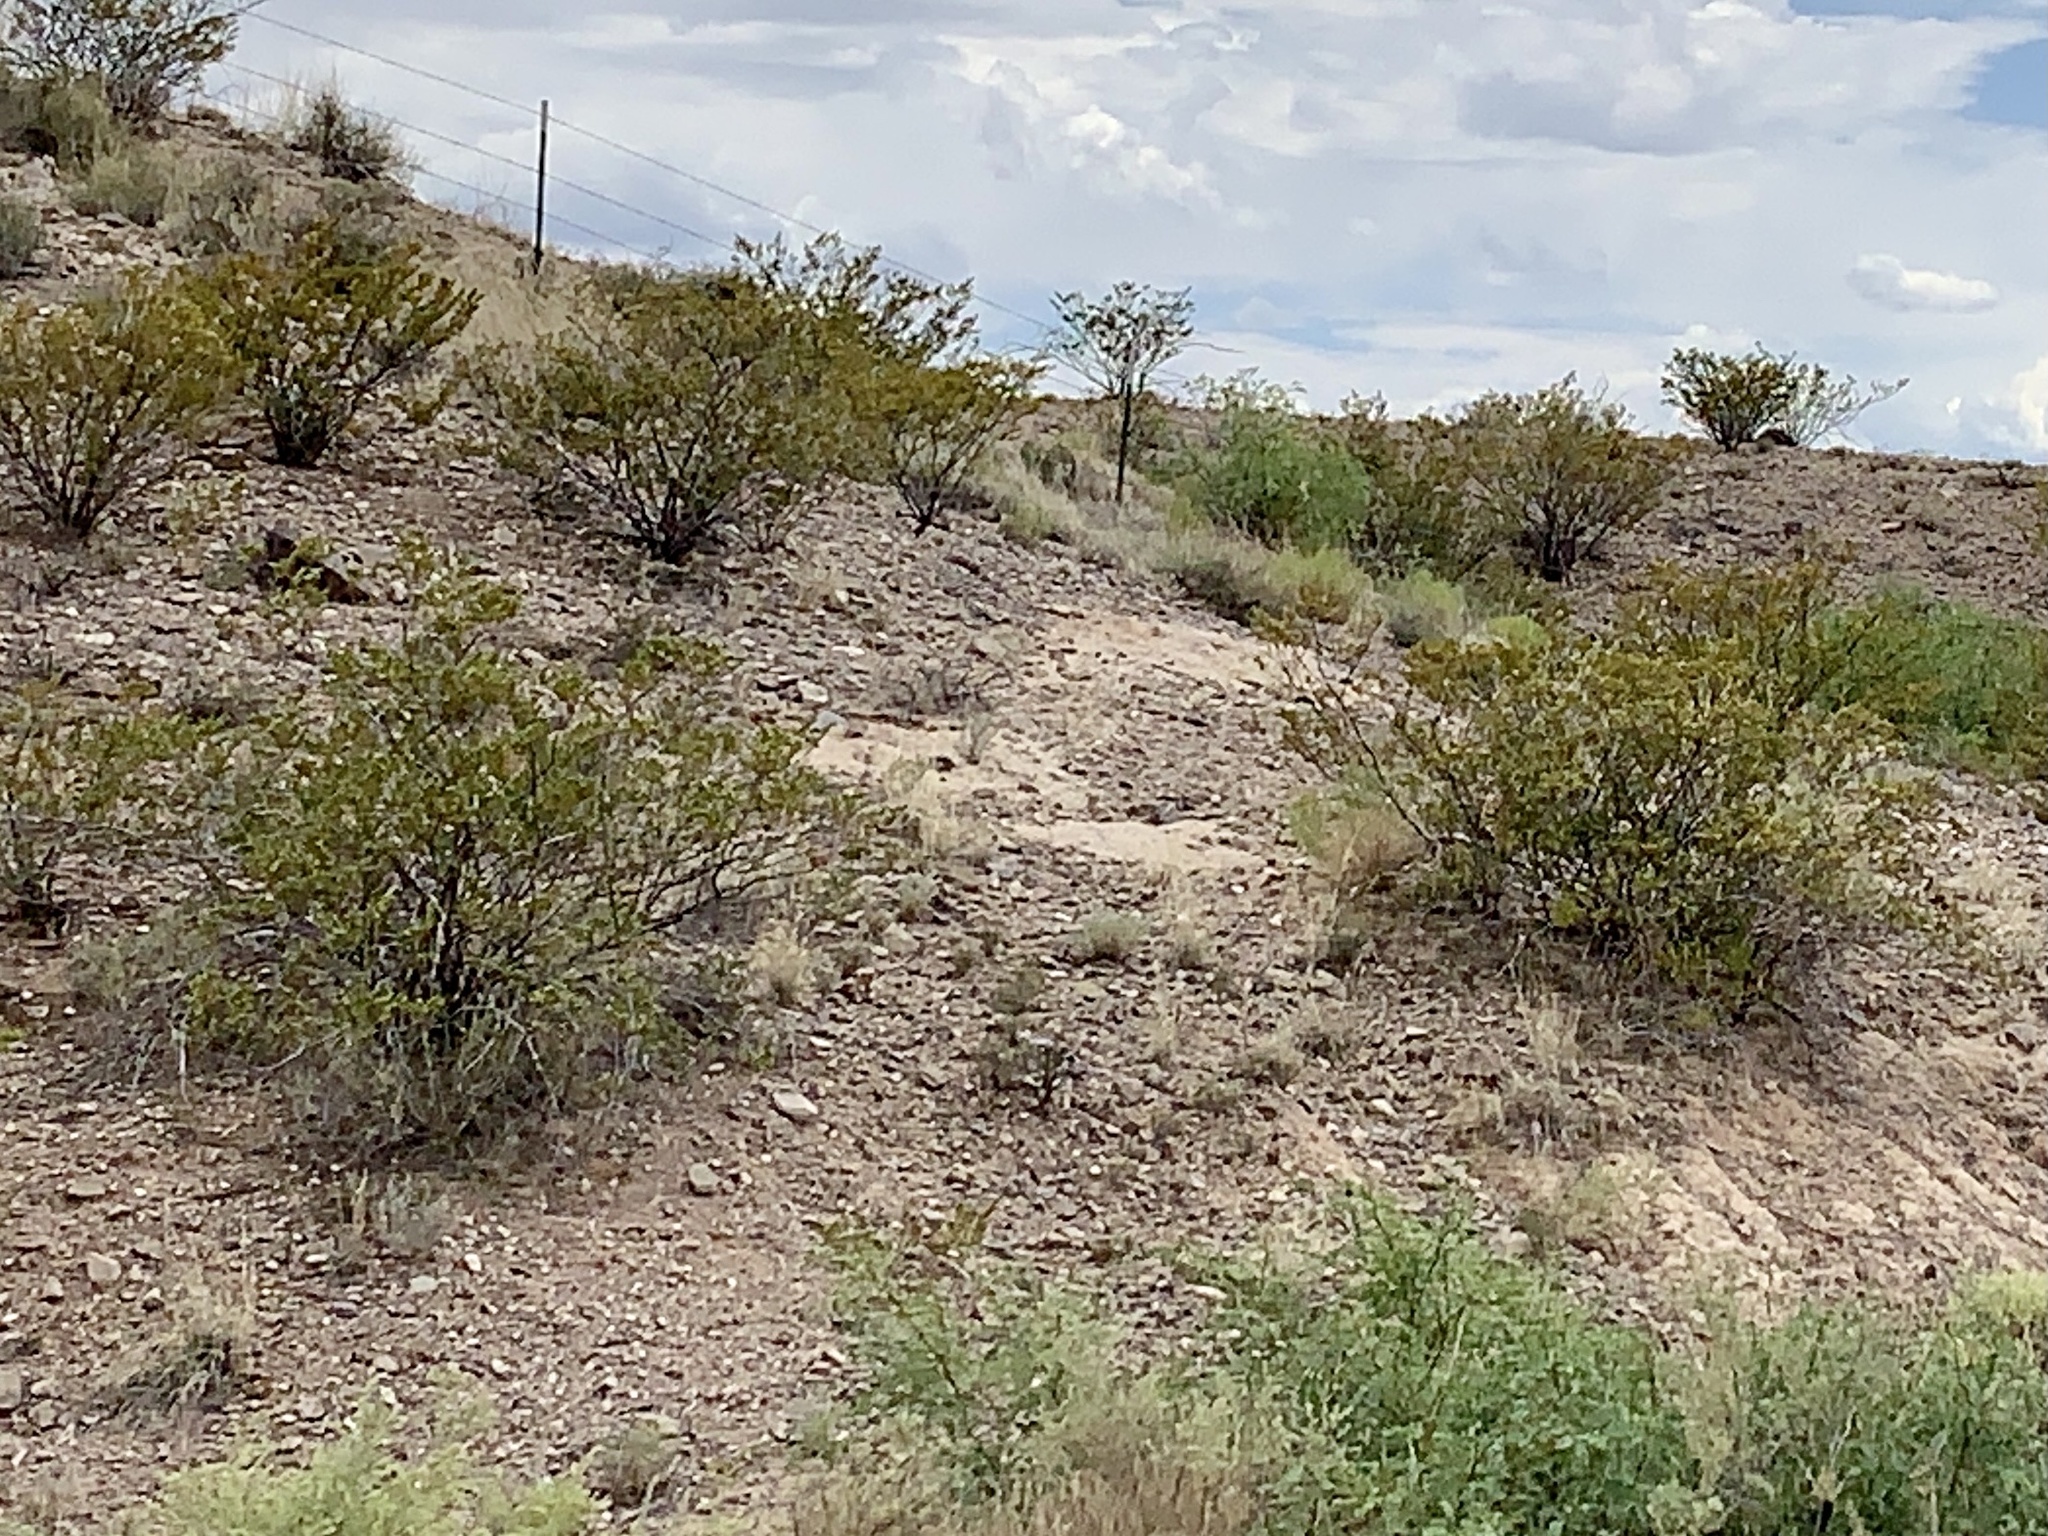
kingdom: Plantae
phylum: Tracheophyta
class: Magnoliopsida
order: Zygophyllales
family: Zygophyllaceae
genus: Larrea
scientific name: Larrea tridentata
